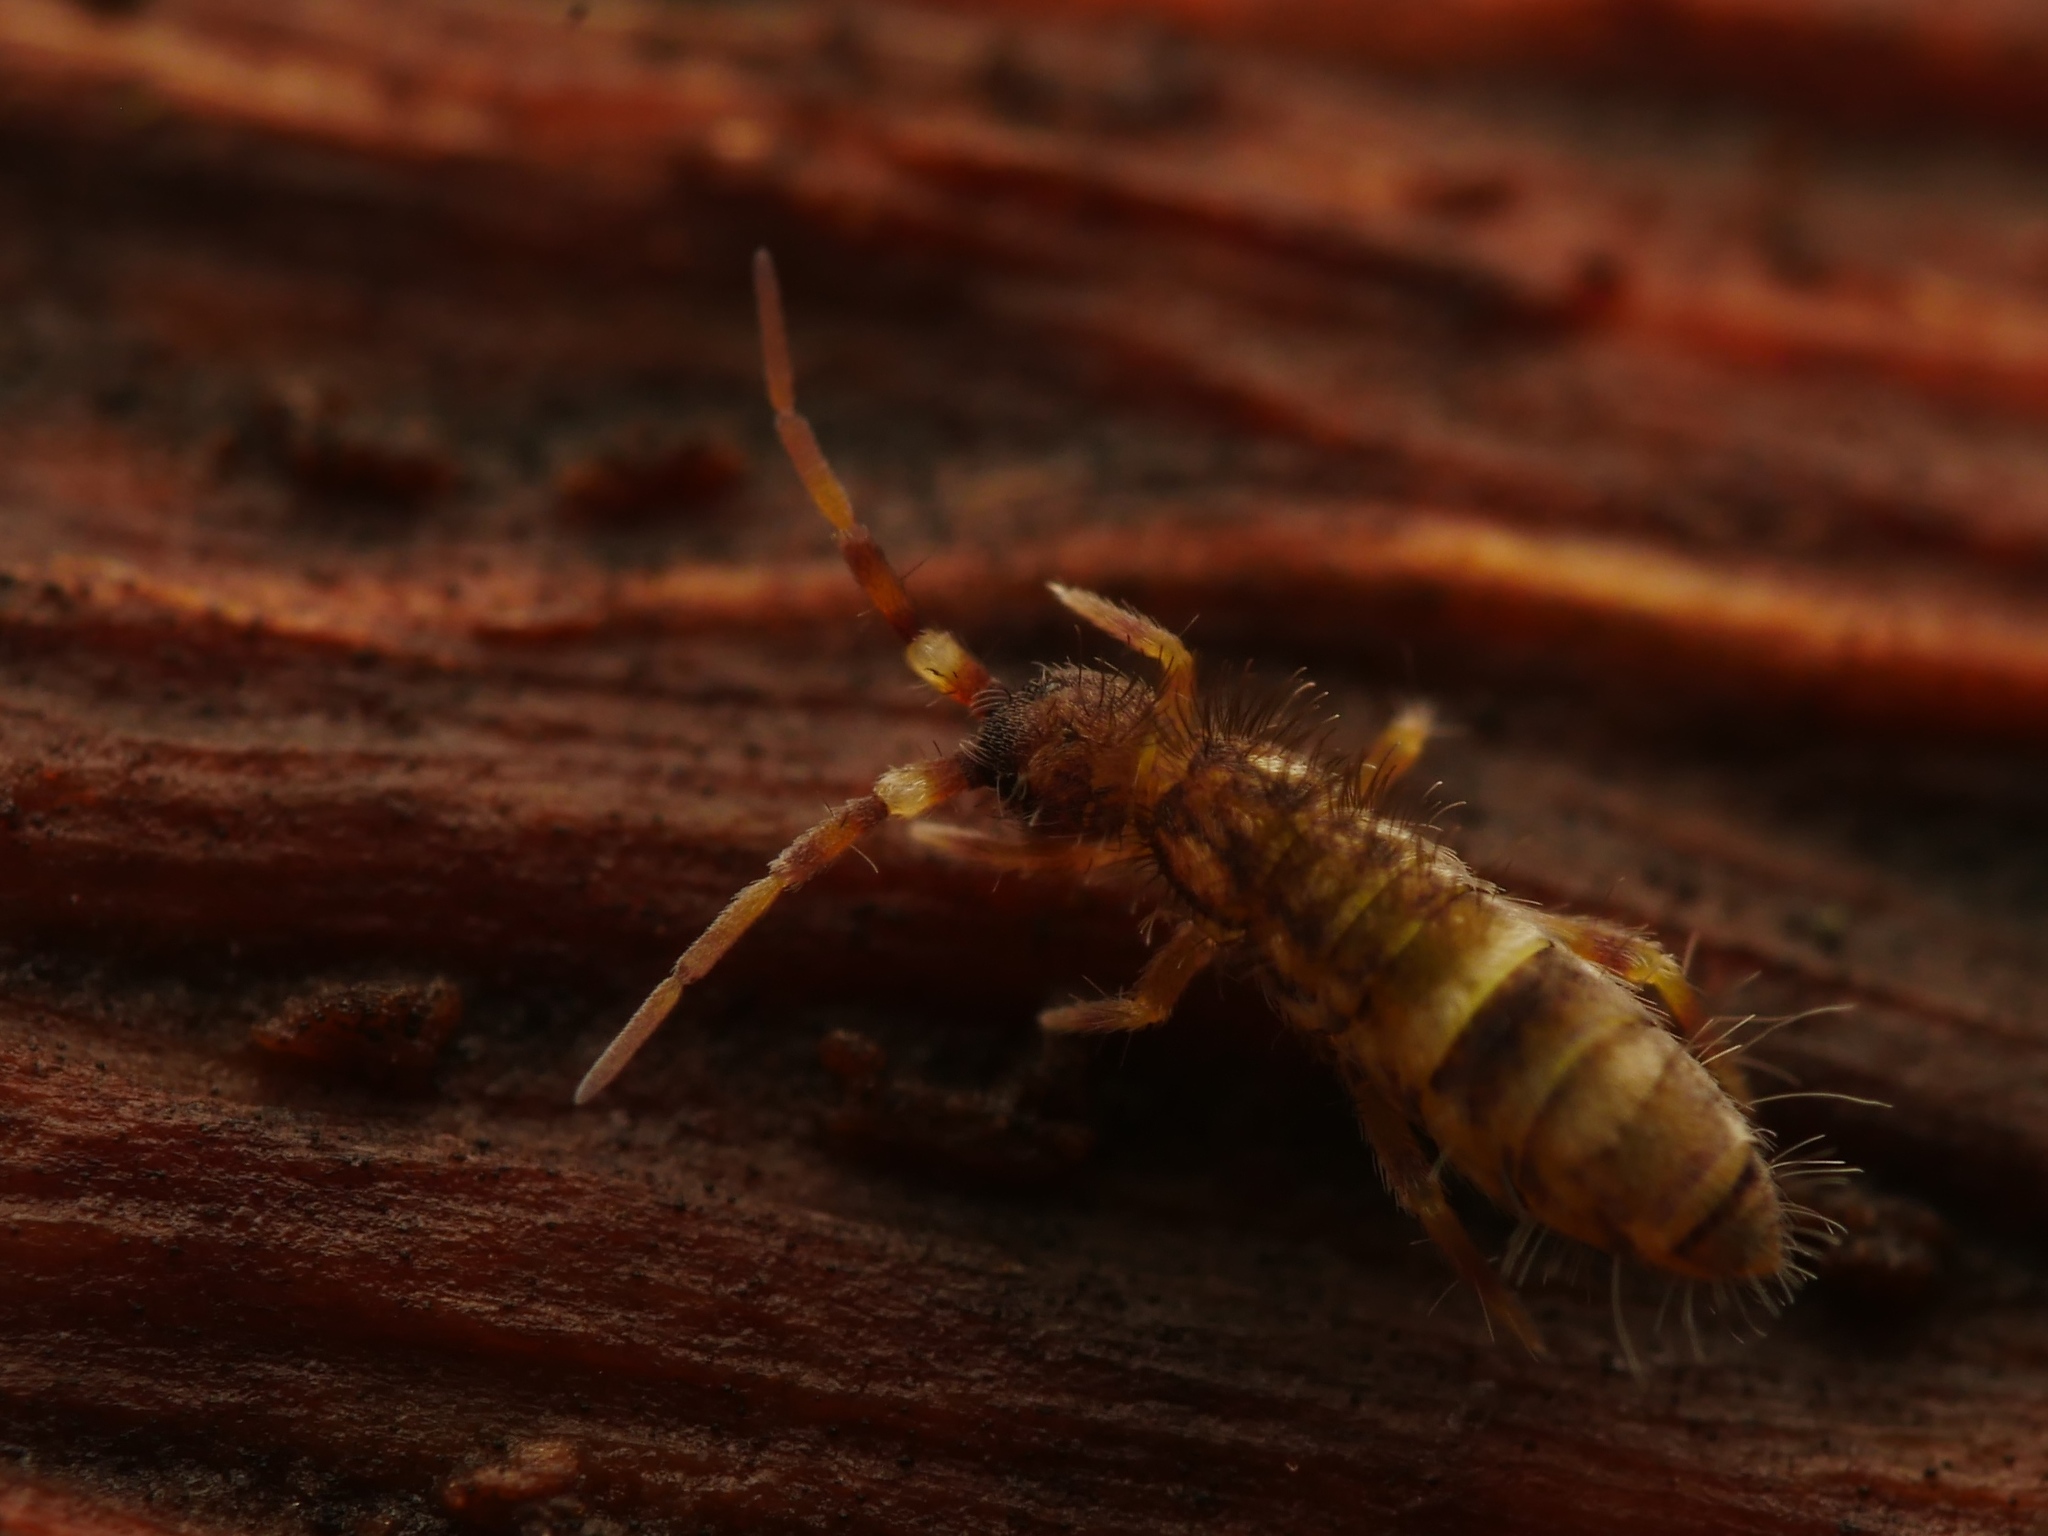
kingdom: Animalia
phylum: Arthropoda
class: Collembola
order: Entomobryomorpha
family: Orchesellidae
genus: Orchesella
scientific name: Orchesella cincta
